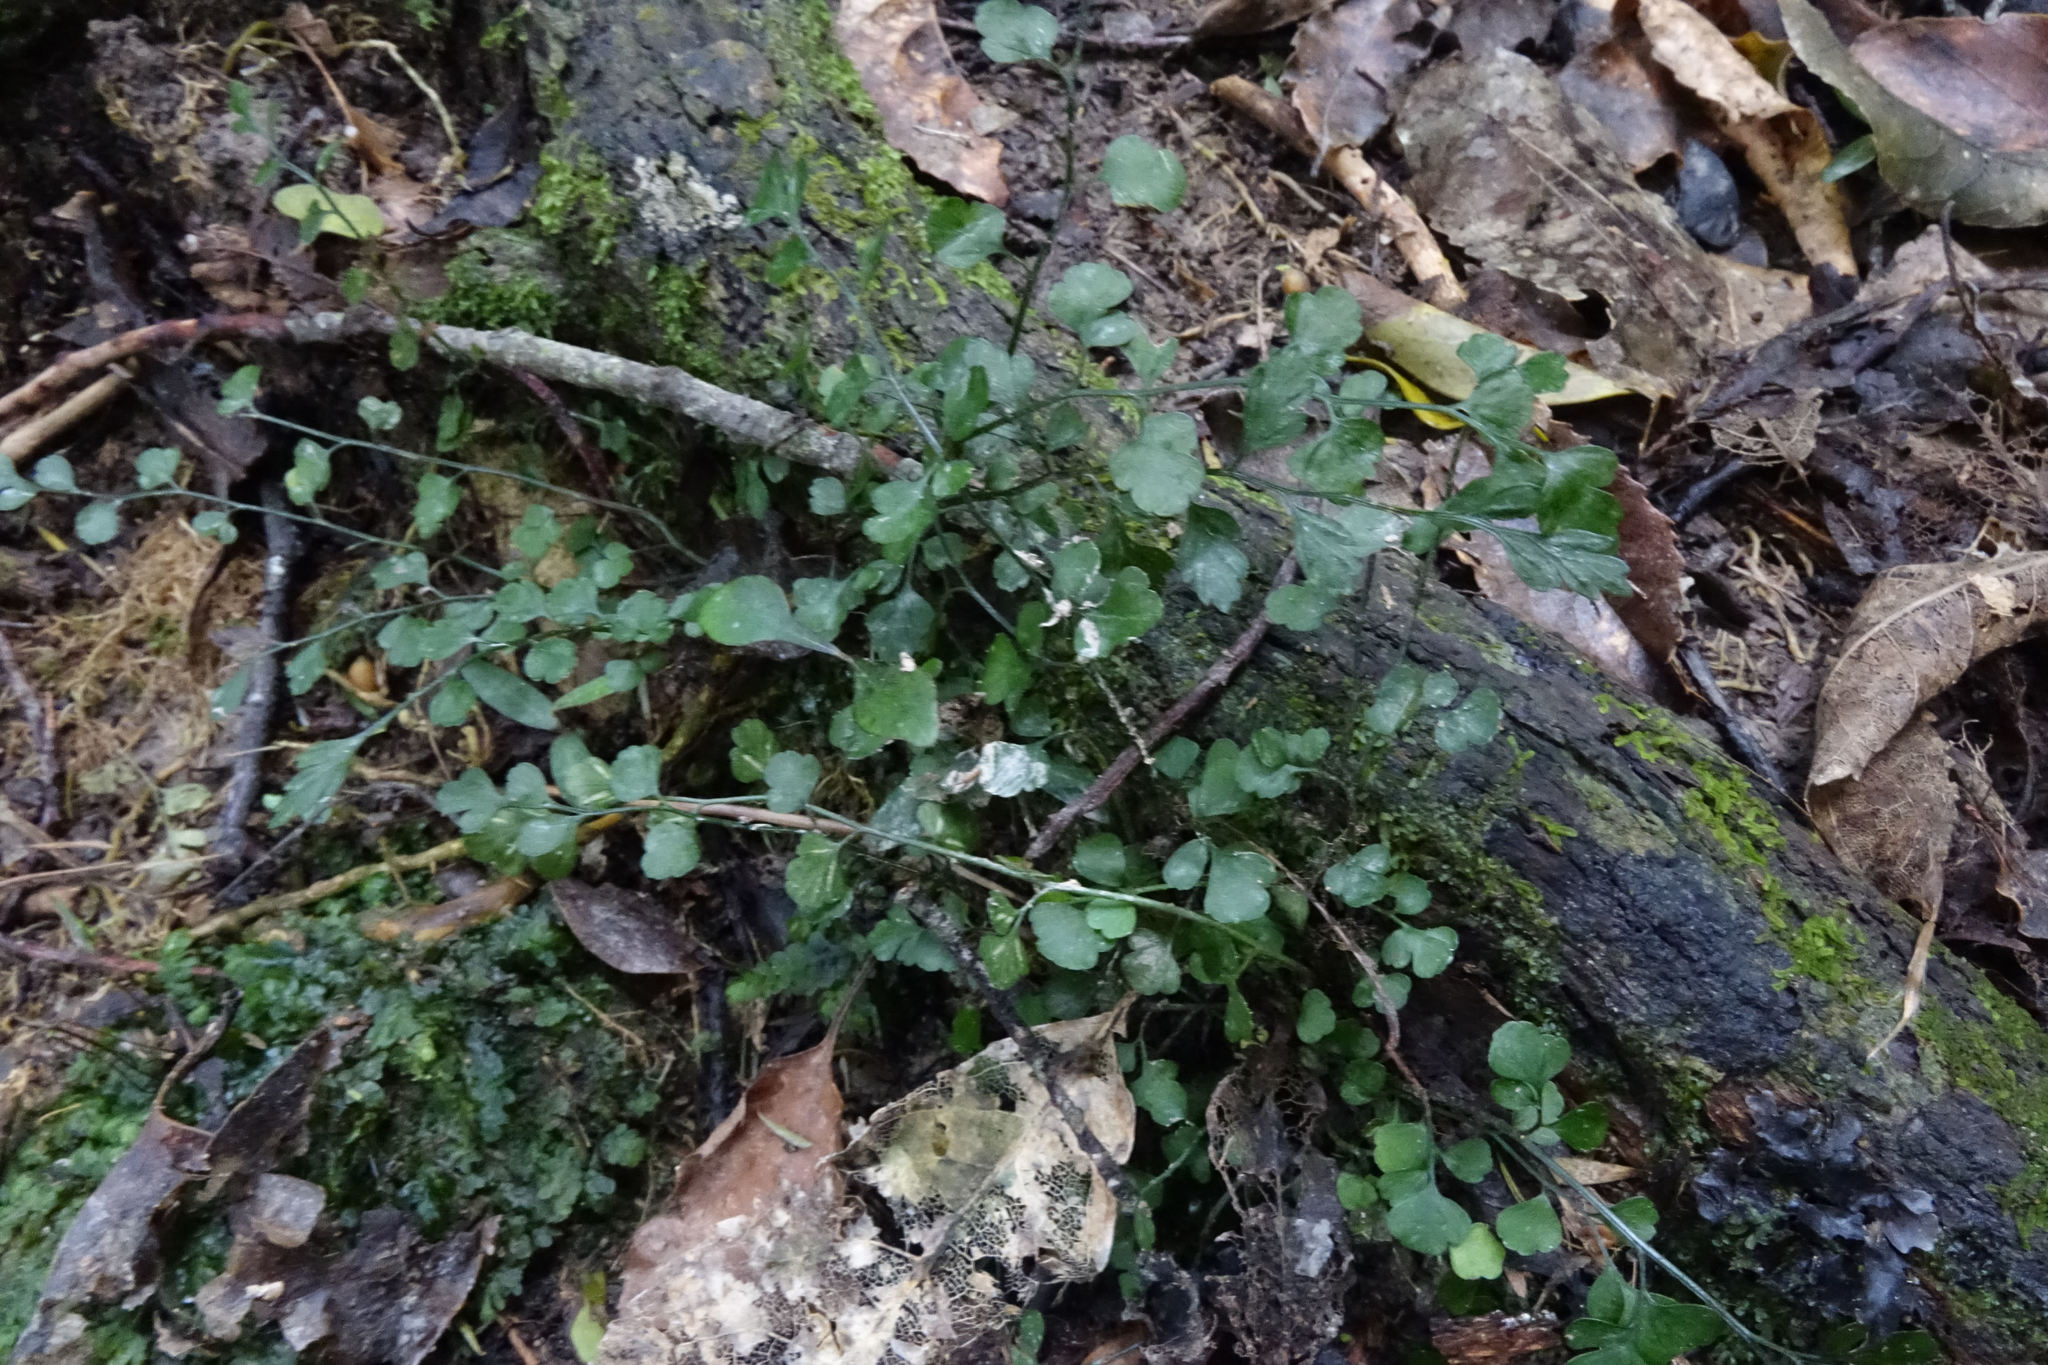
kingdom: Plantae
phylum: Tracheophyta
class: Polypodiopsida
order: Polypodiales
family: Aspleniaceae
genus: Asplenium
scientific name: Asplenium hookerianum
